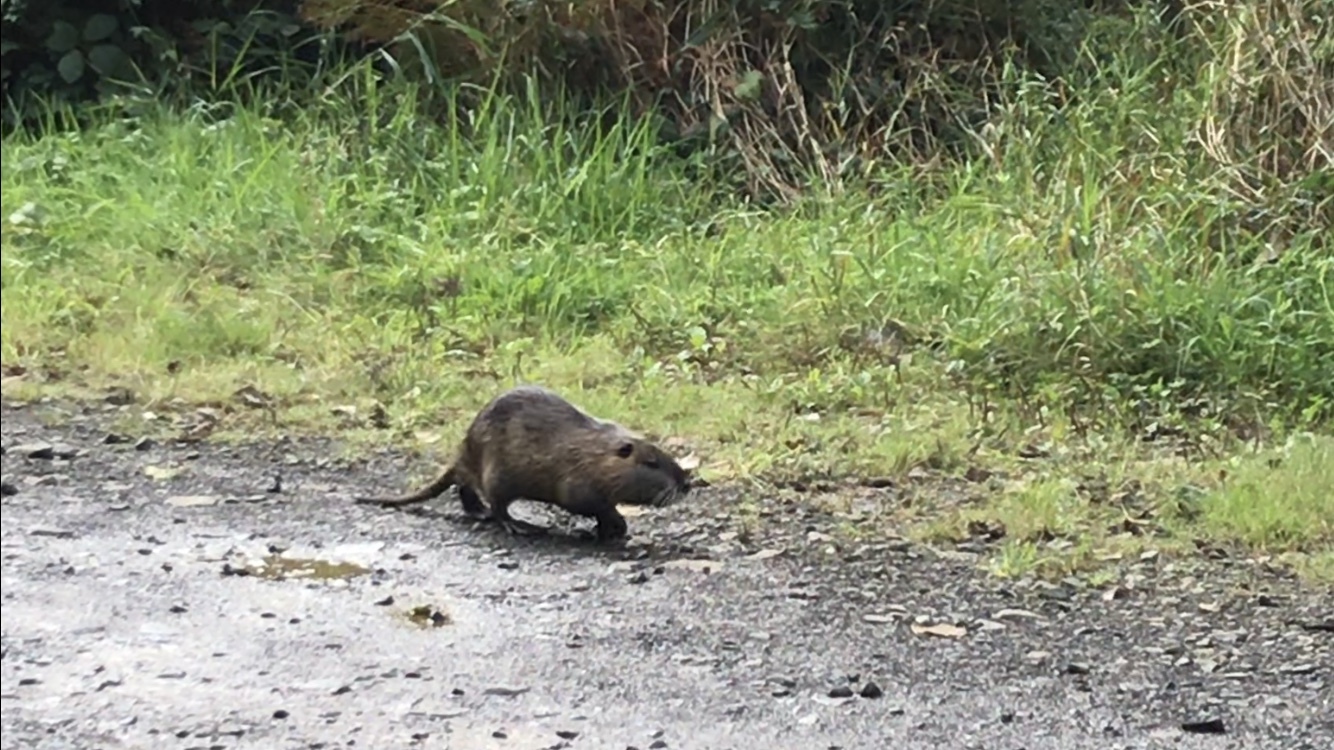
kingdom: Animalia
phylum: Chordata
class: Mammalia
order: Rodentia
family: Myocastoridae
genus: Myocastor
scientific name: Myocastor coypus
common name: Coypu
